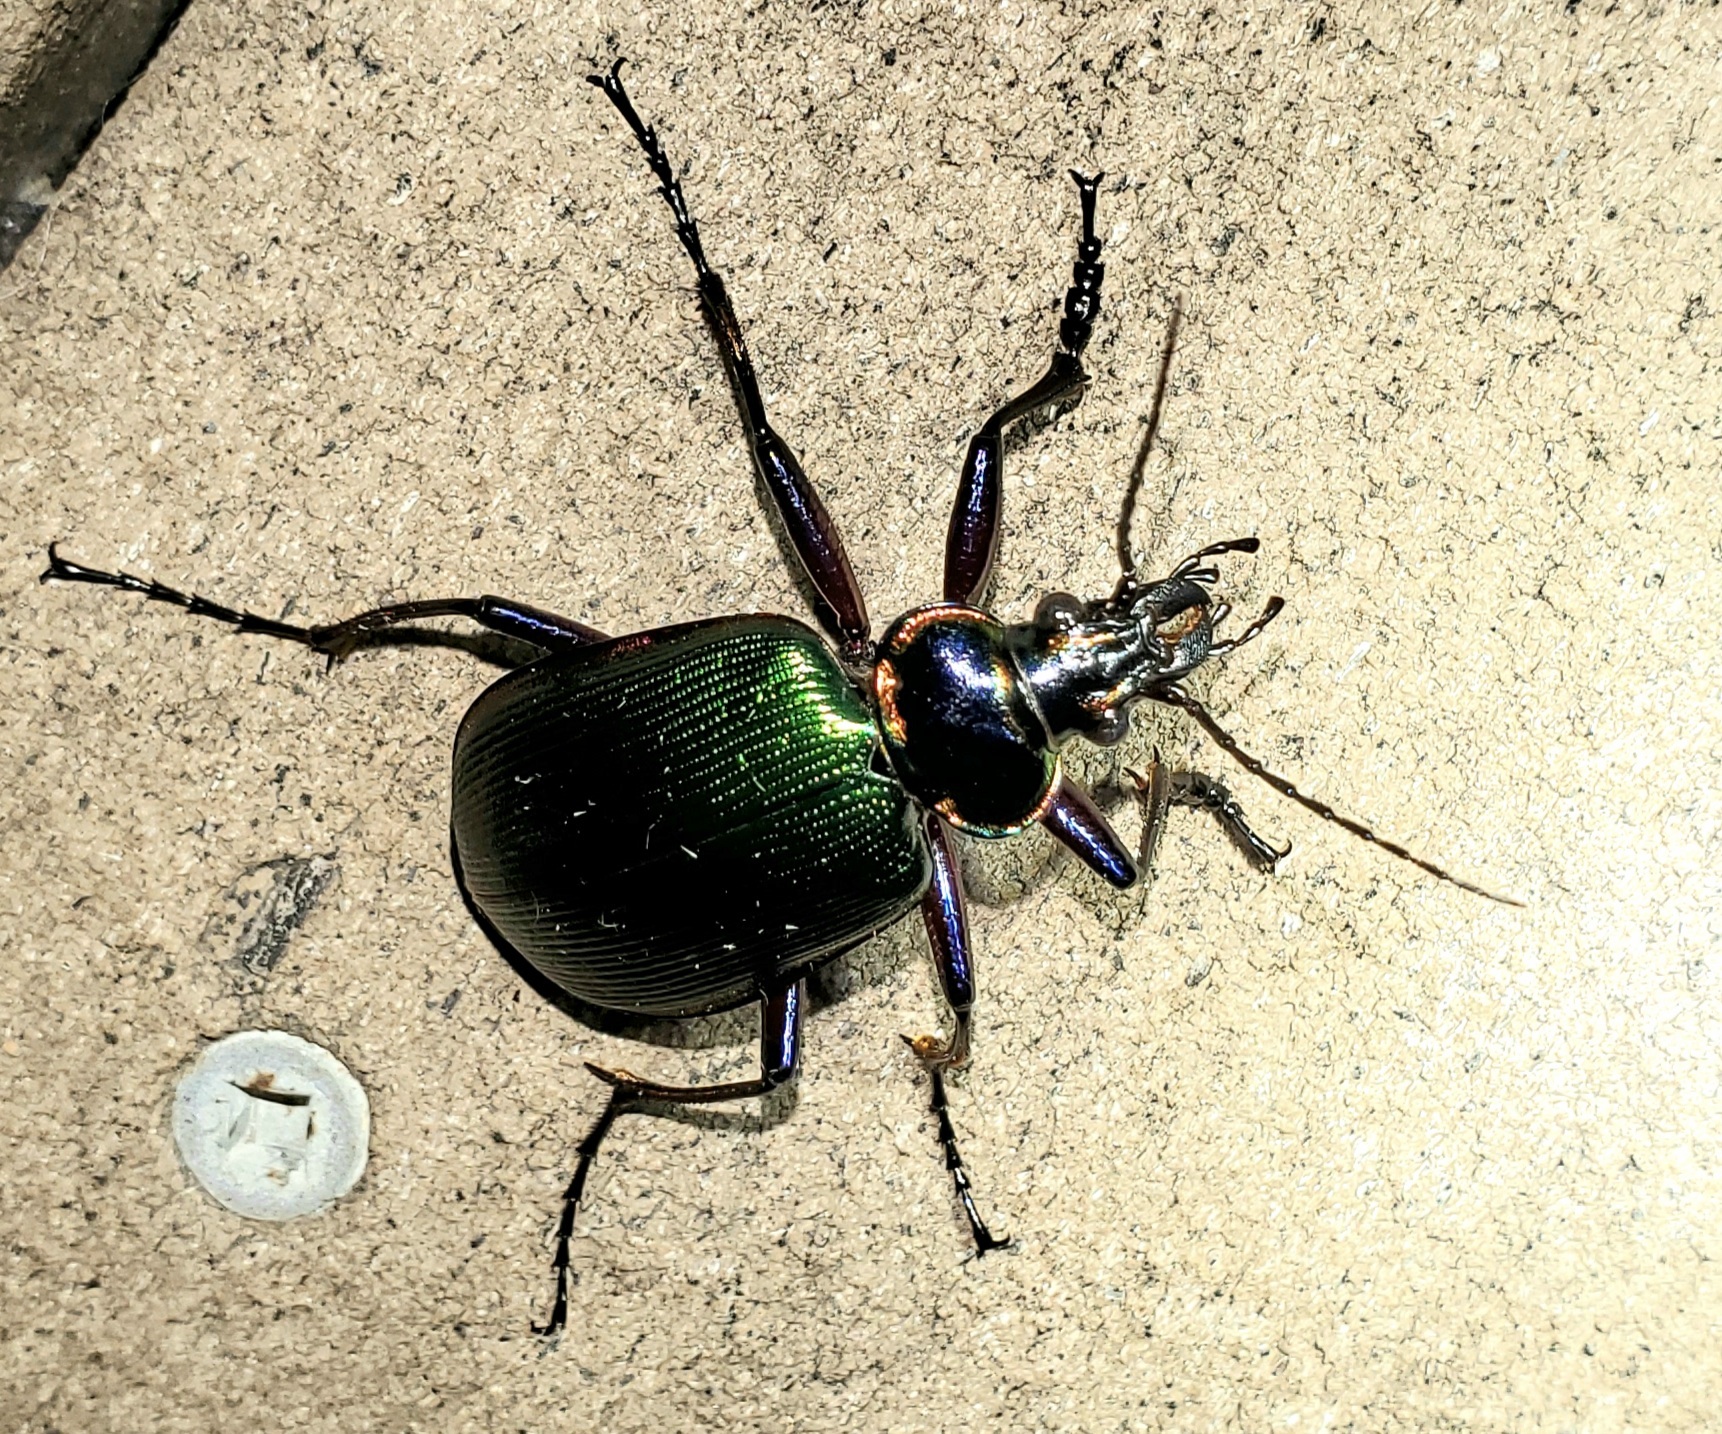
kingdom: Animalia
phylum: Arthropoda
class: Insecta
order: Coleoptera
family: Carabidae
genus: Calosoma
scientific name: Calosoma scrutator
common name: Fiery searcher beetle
